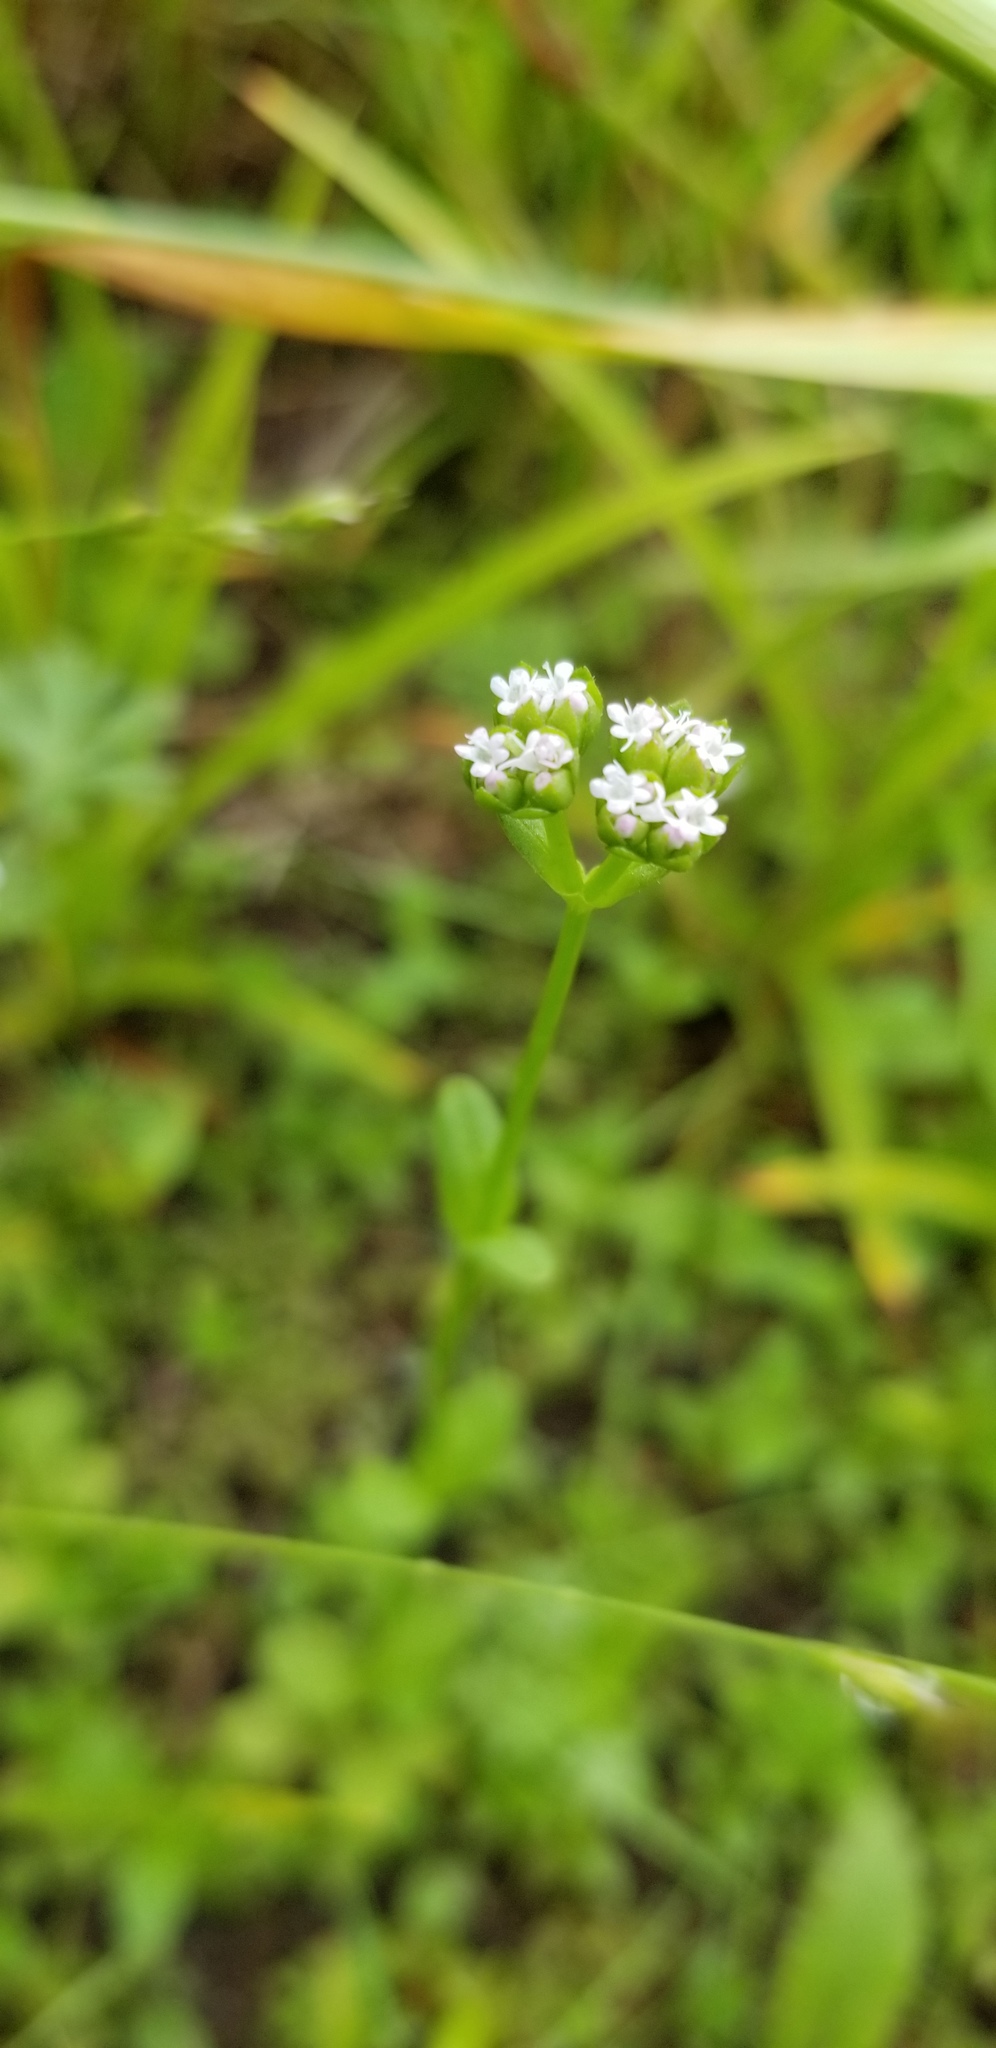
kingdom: Plantae
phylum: Tracheophyta
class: Magnoliopsida
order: Dipsacales
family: Caprifoliaceae
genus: Valerianella
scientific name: Valerianella radiata
